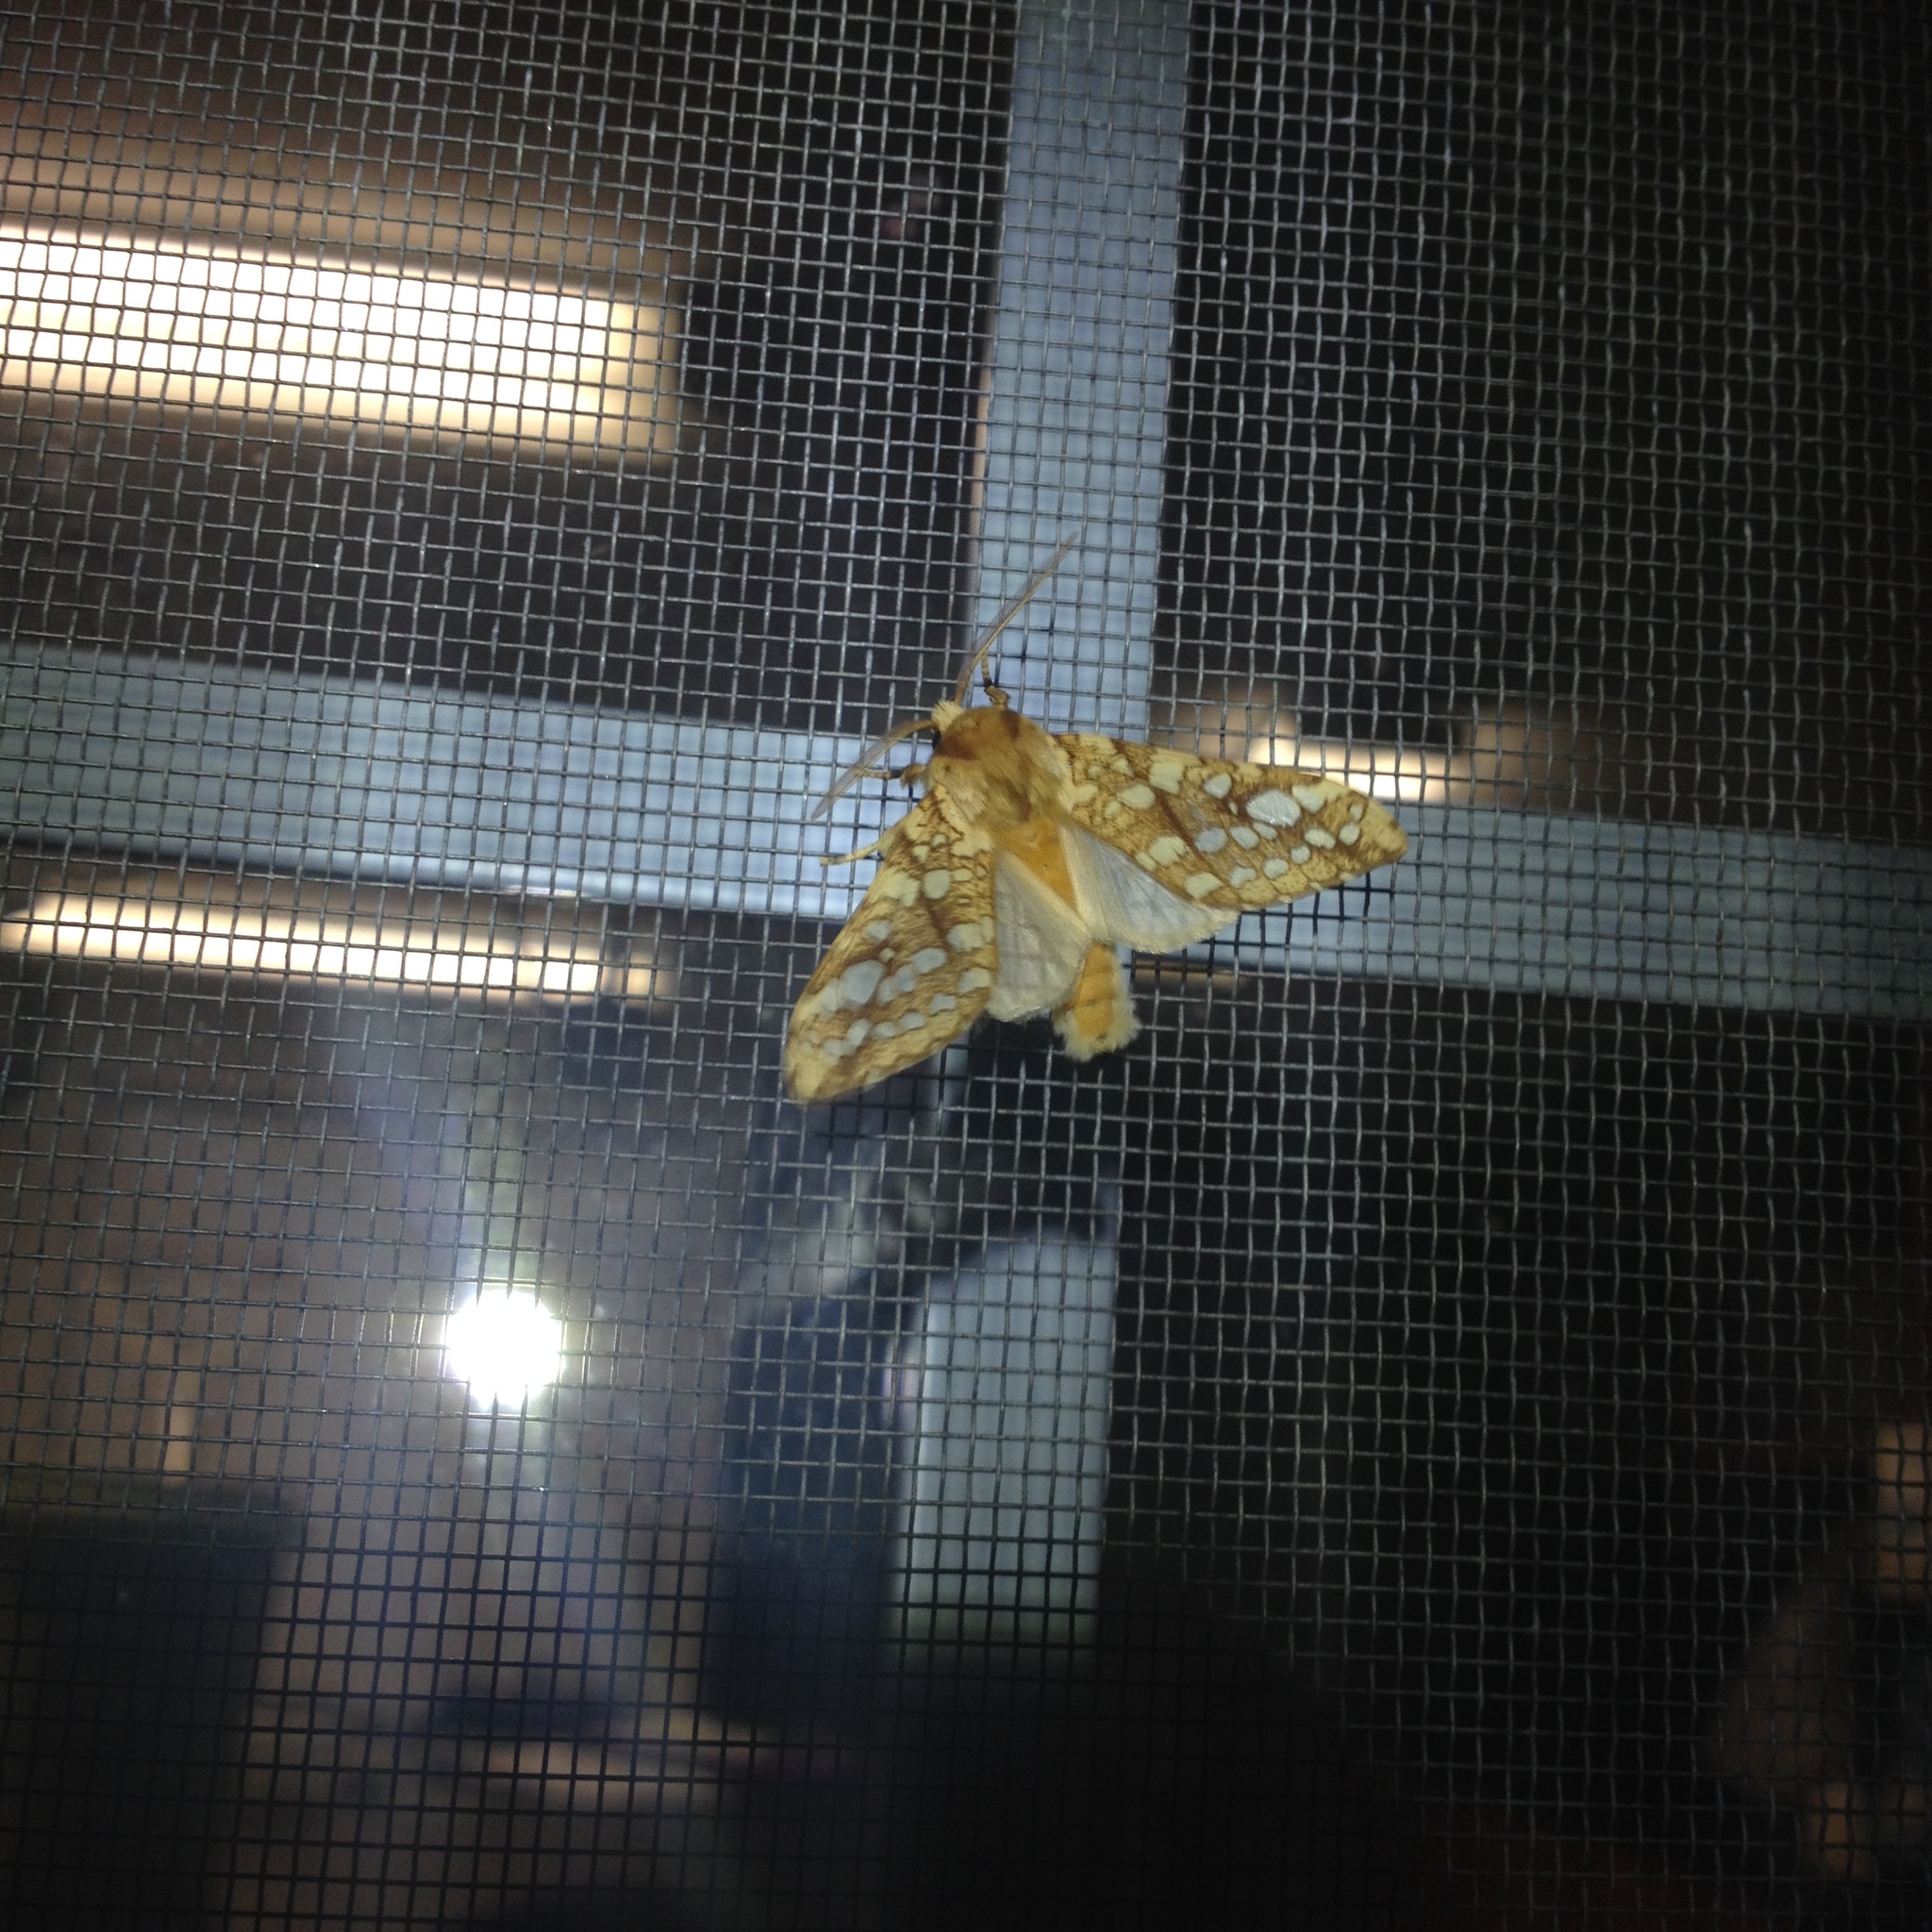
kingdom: Animalia
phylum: Arthropoda
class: Insecta
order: Lepidoptera
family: Erebidae
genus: Lophocampa
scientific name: Lophocampa caryae
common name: Hickory tussock moth
